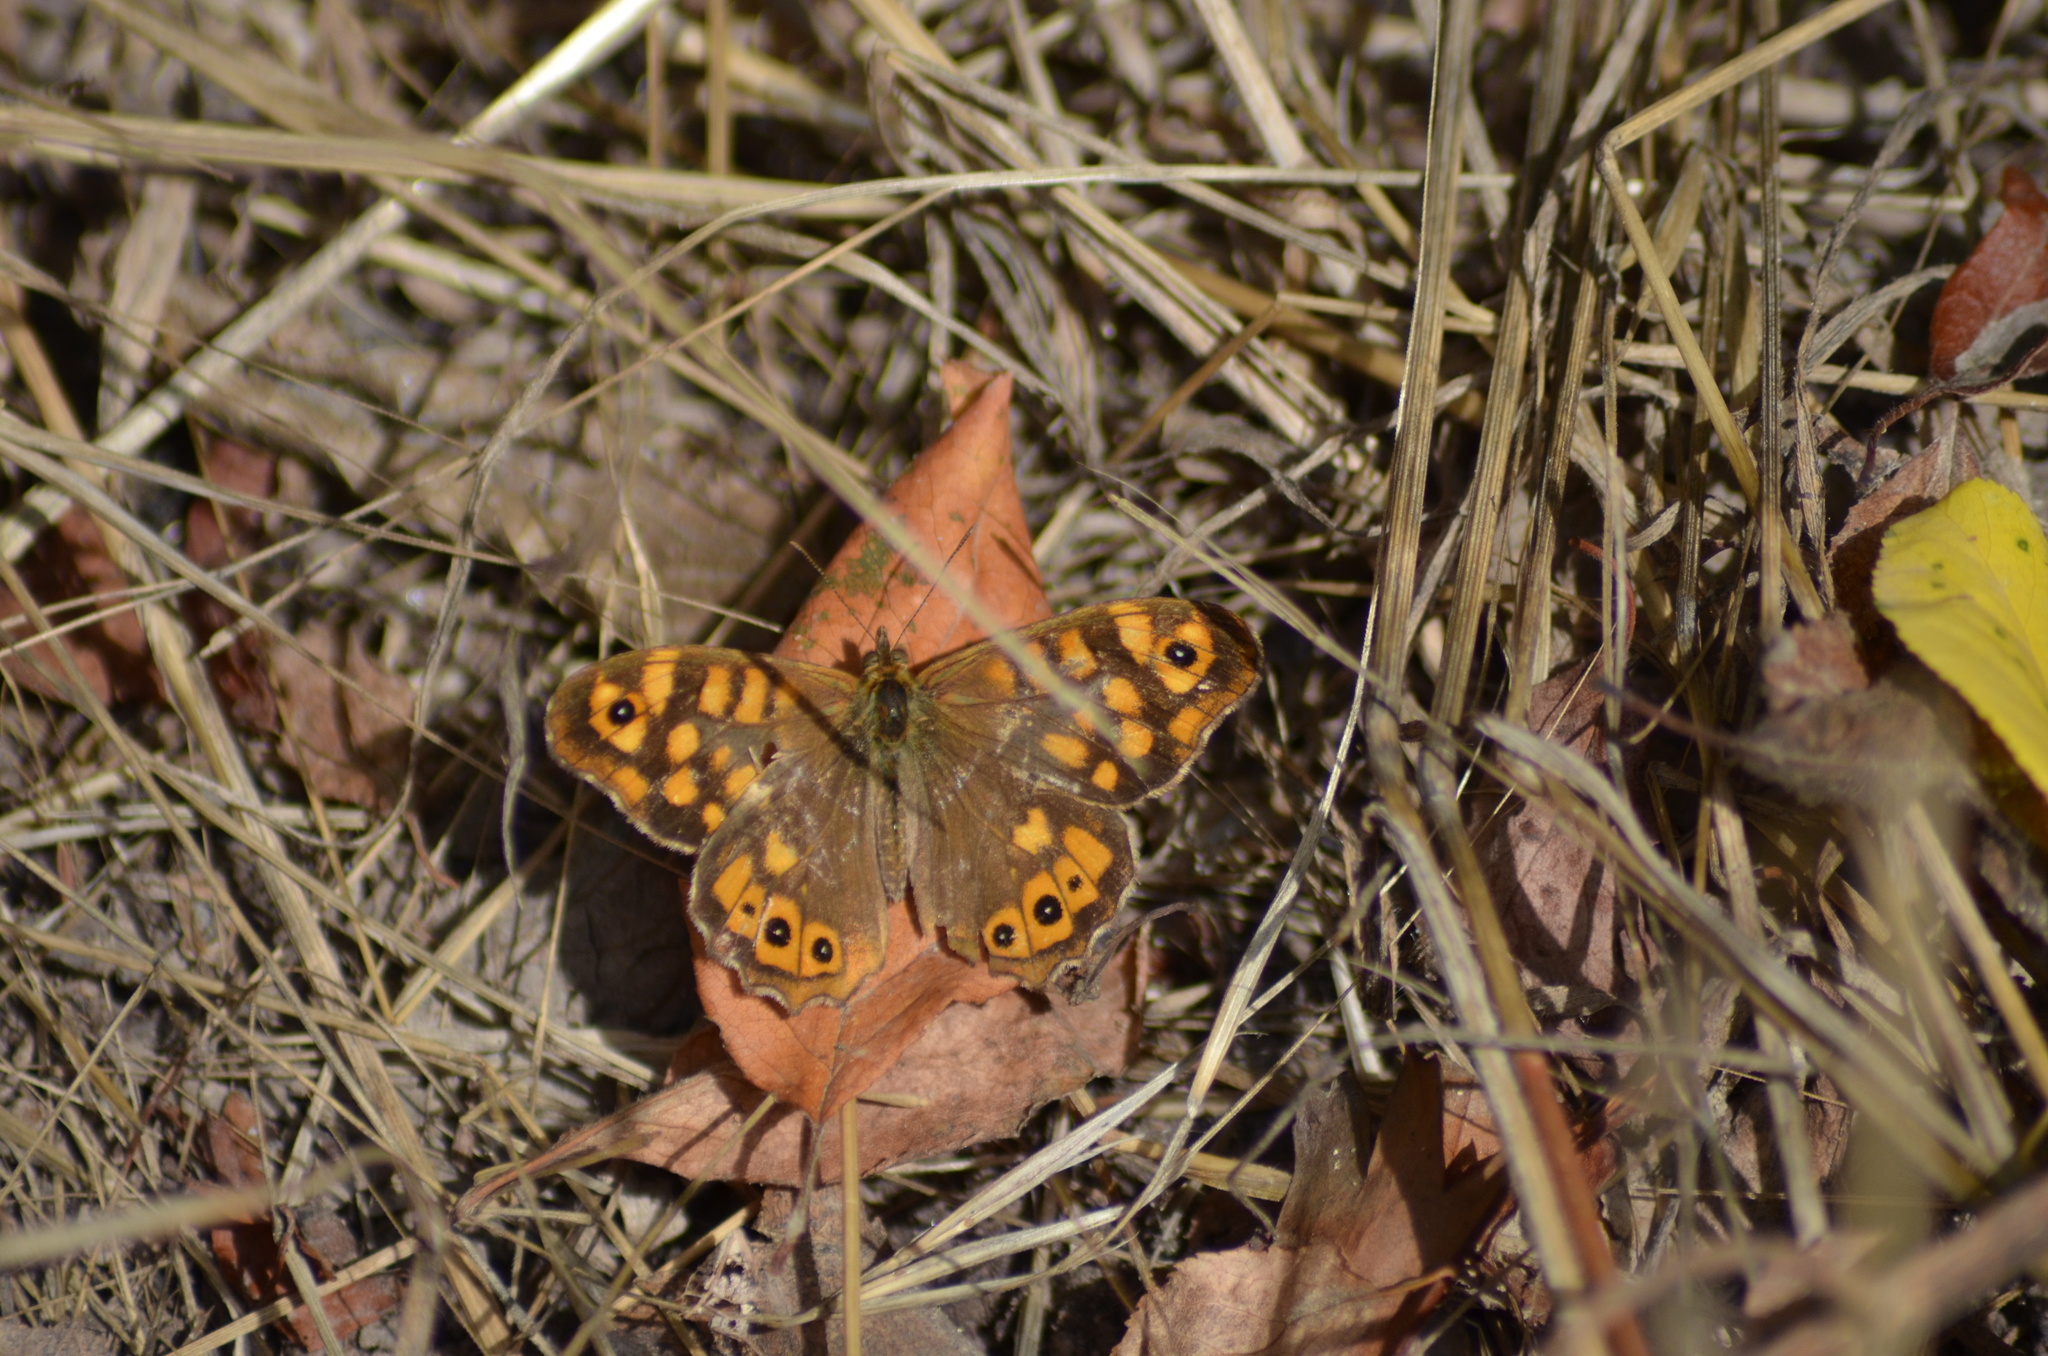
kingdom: Animalia
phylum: Arthropoda
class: Insecta
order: Lepidoptera
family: Nymphalidae
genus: Pararge
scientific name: Pararge aegeria
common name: Speckled wood
